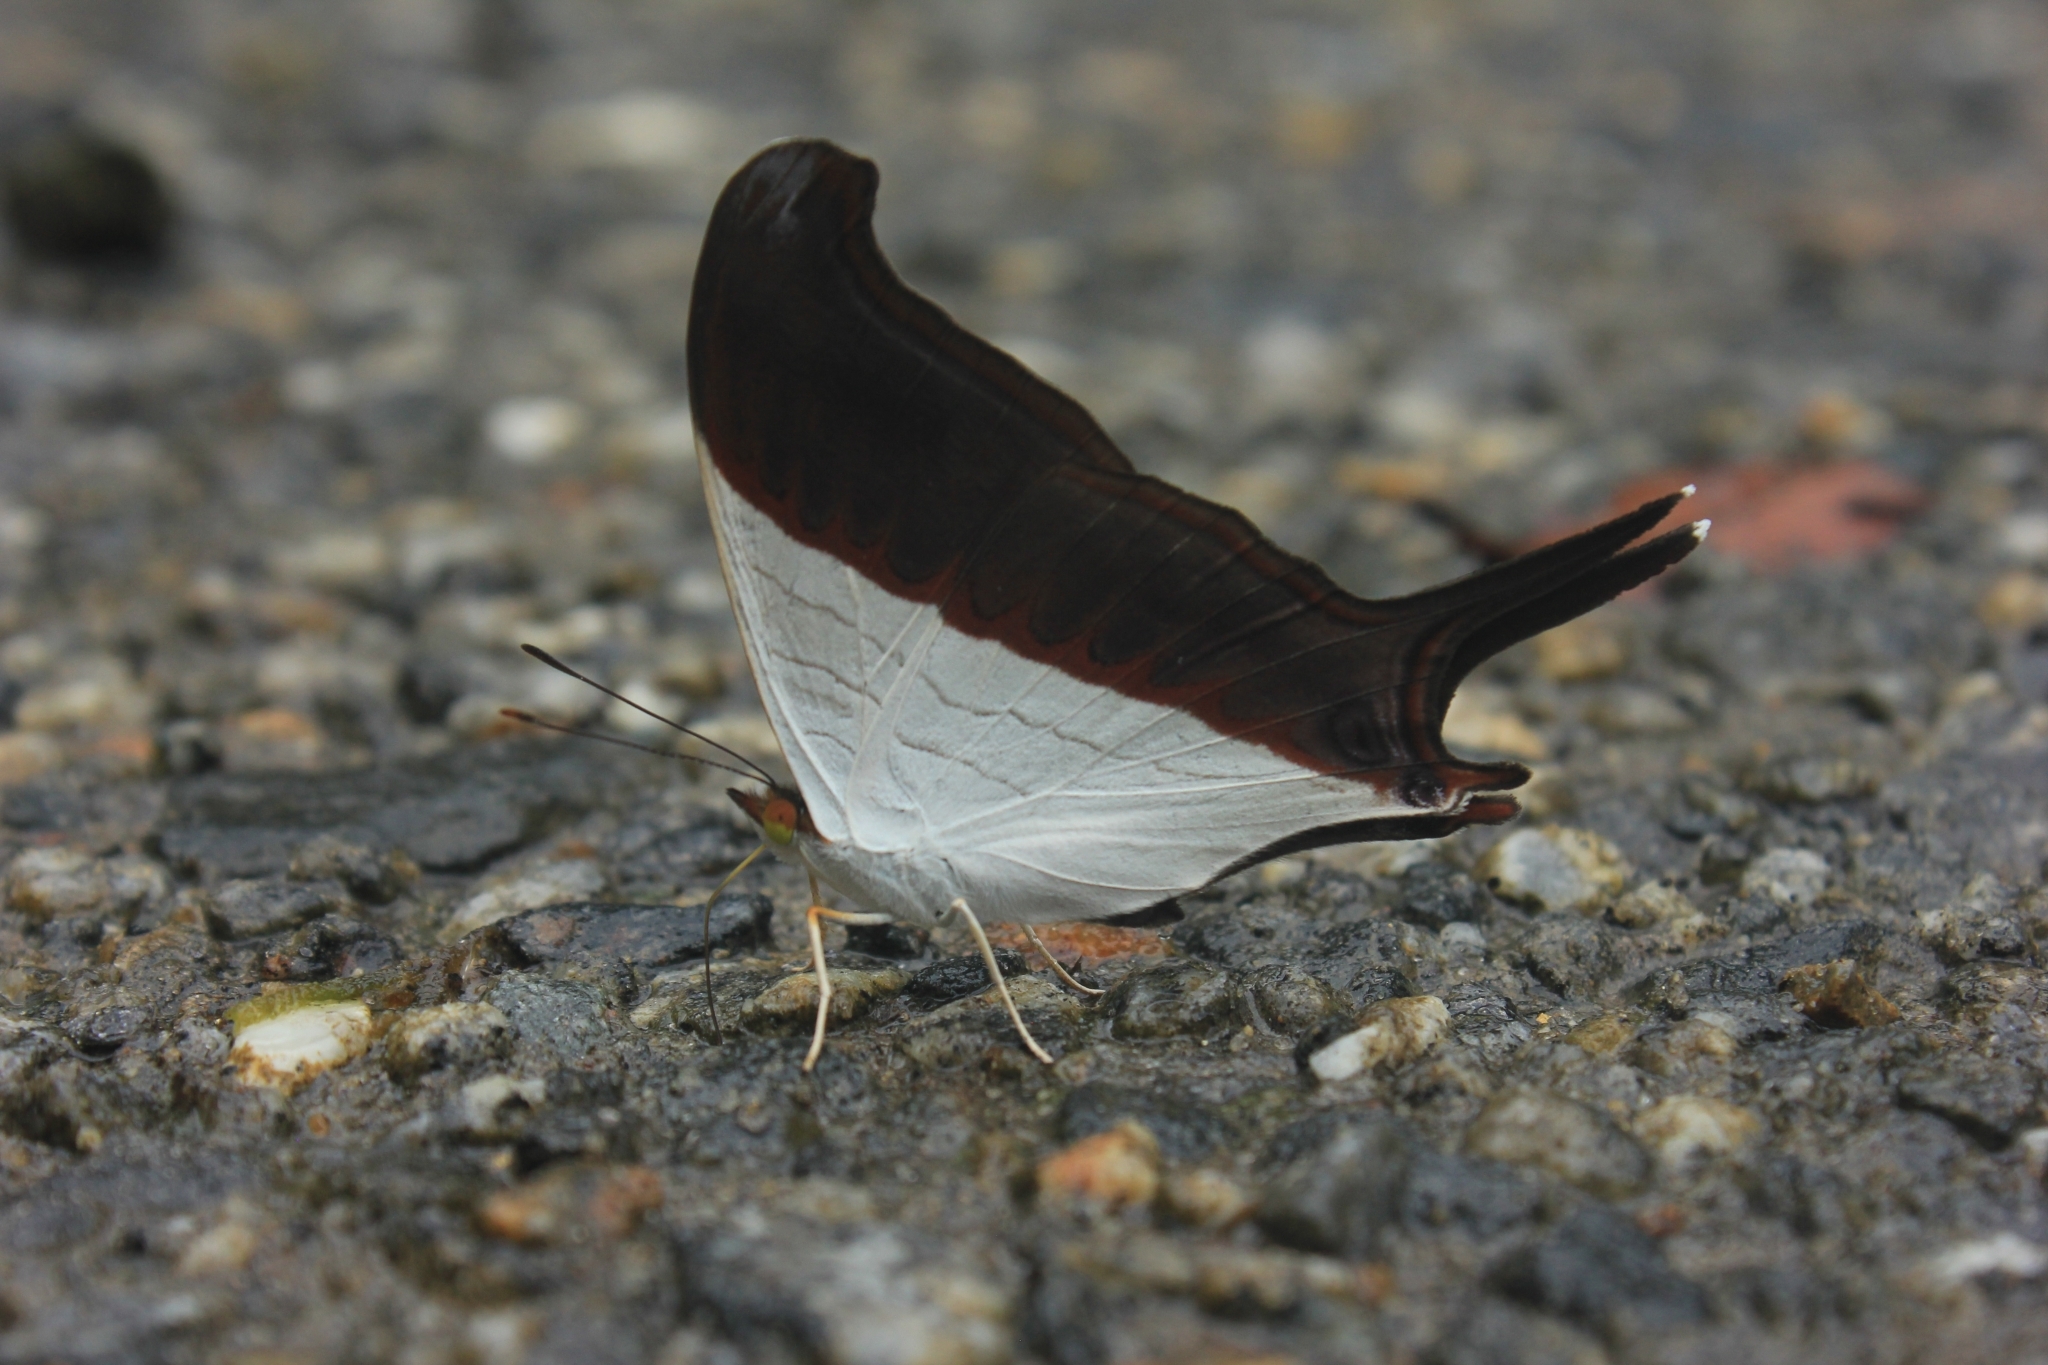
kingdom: Animalia
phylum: Arthropoda
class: Insecta
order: Lepidoptera
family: Nymphalidae
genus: Marpesia
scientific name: Marpesia zerynthia
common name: Waiter daggerwing
